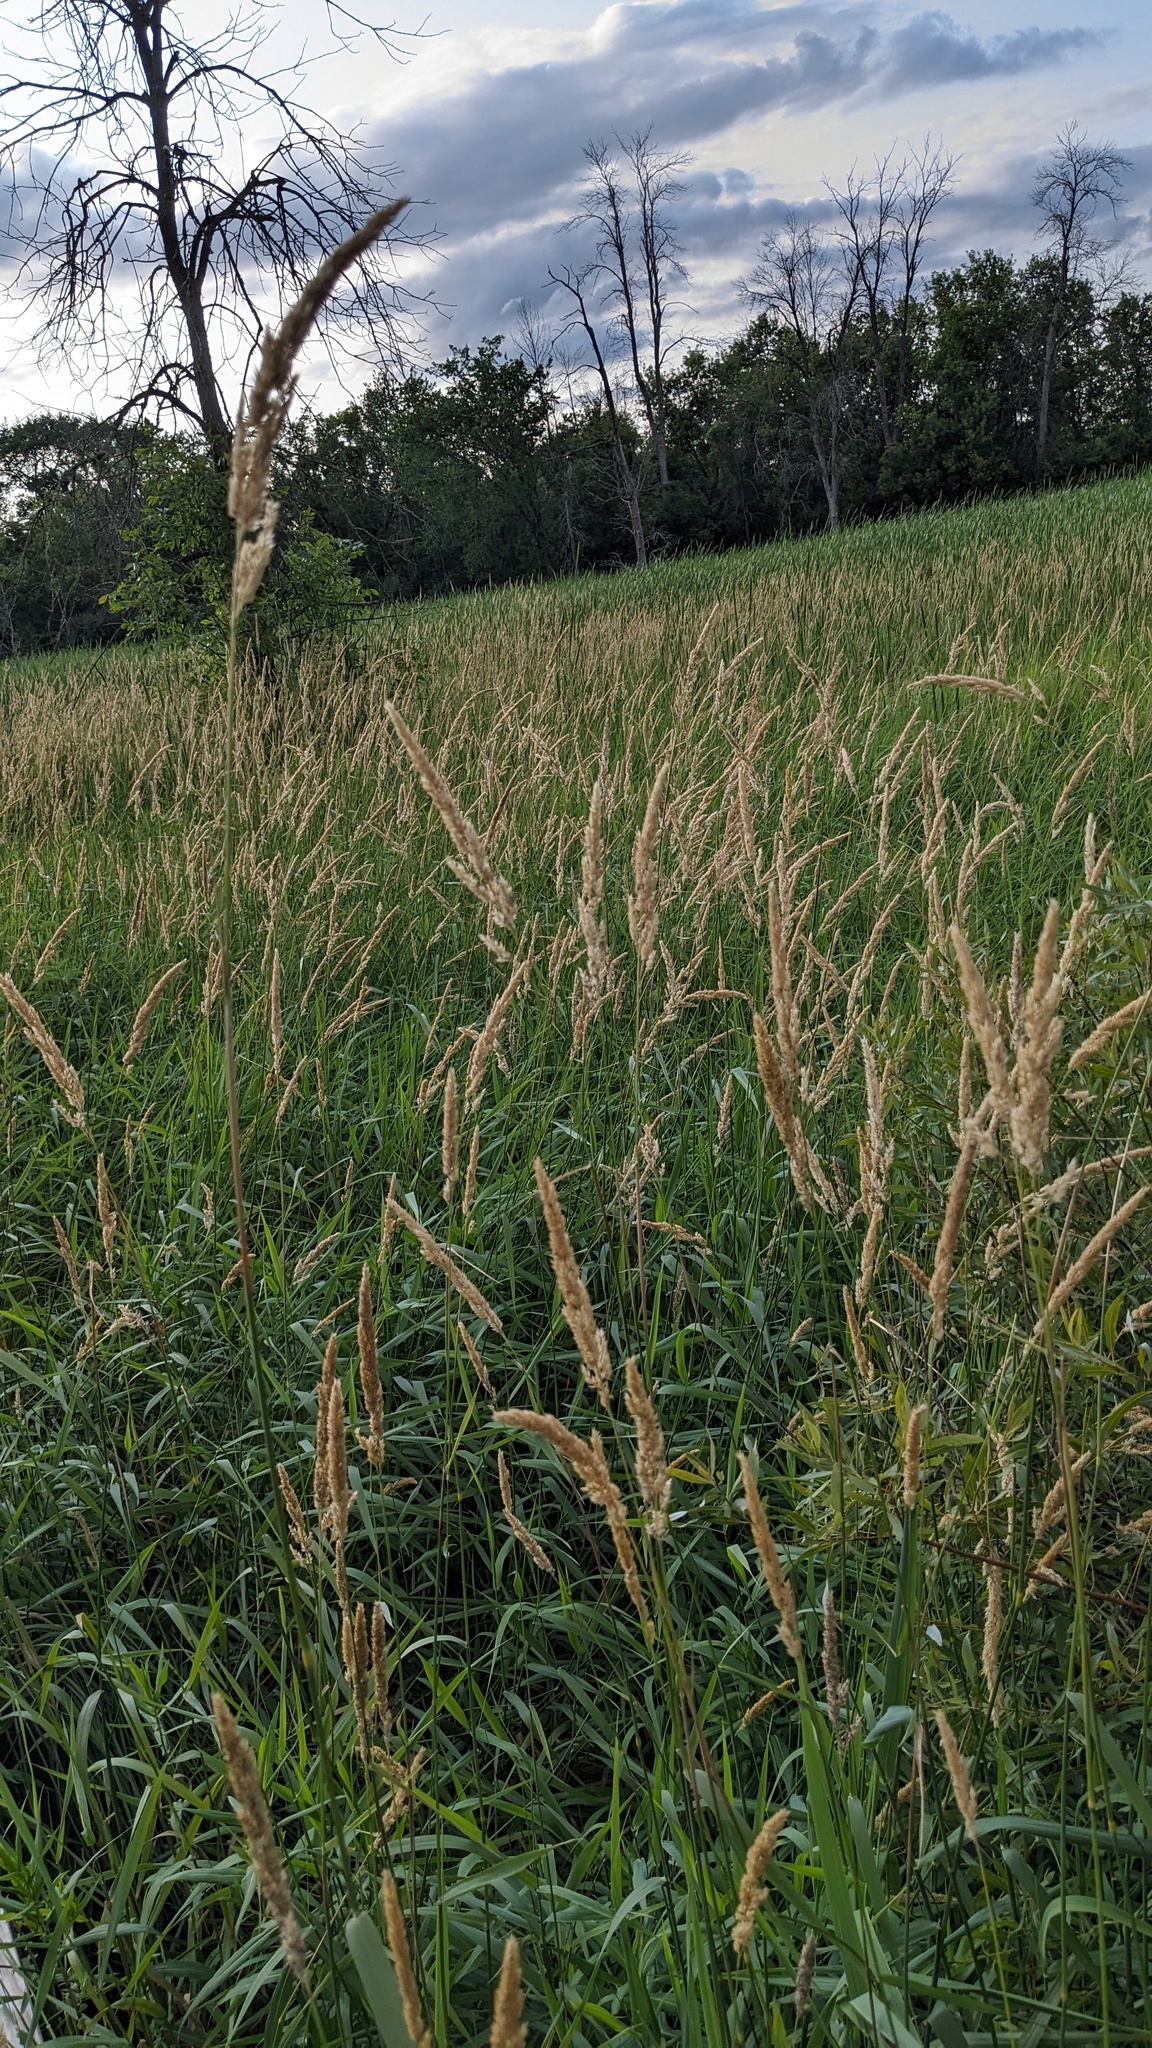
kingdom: Plantae
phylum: Tracheophyta
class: Liliopsida
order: Poales
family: Poaceae
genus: Phalaris
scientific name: Phalaris arundinacea
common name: Reed canary-grass
